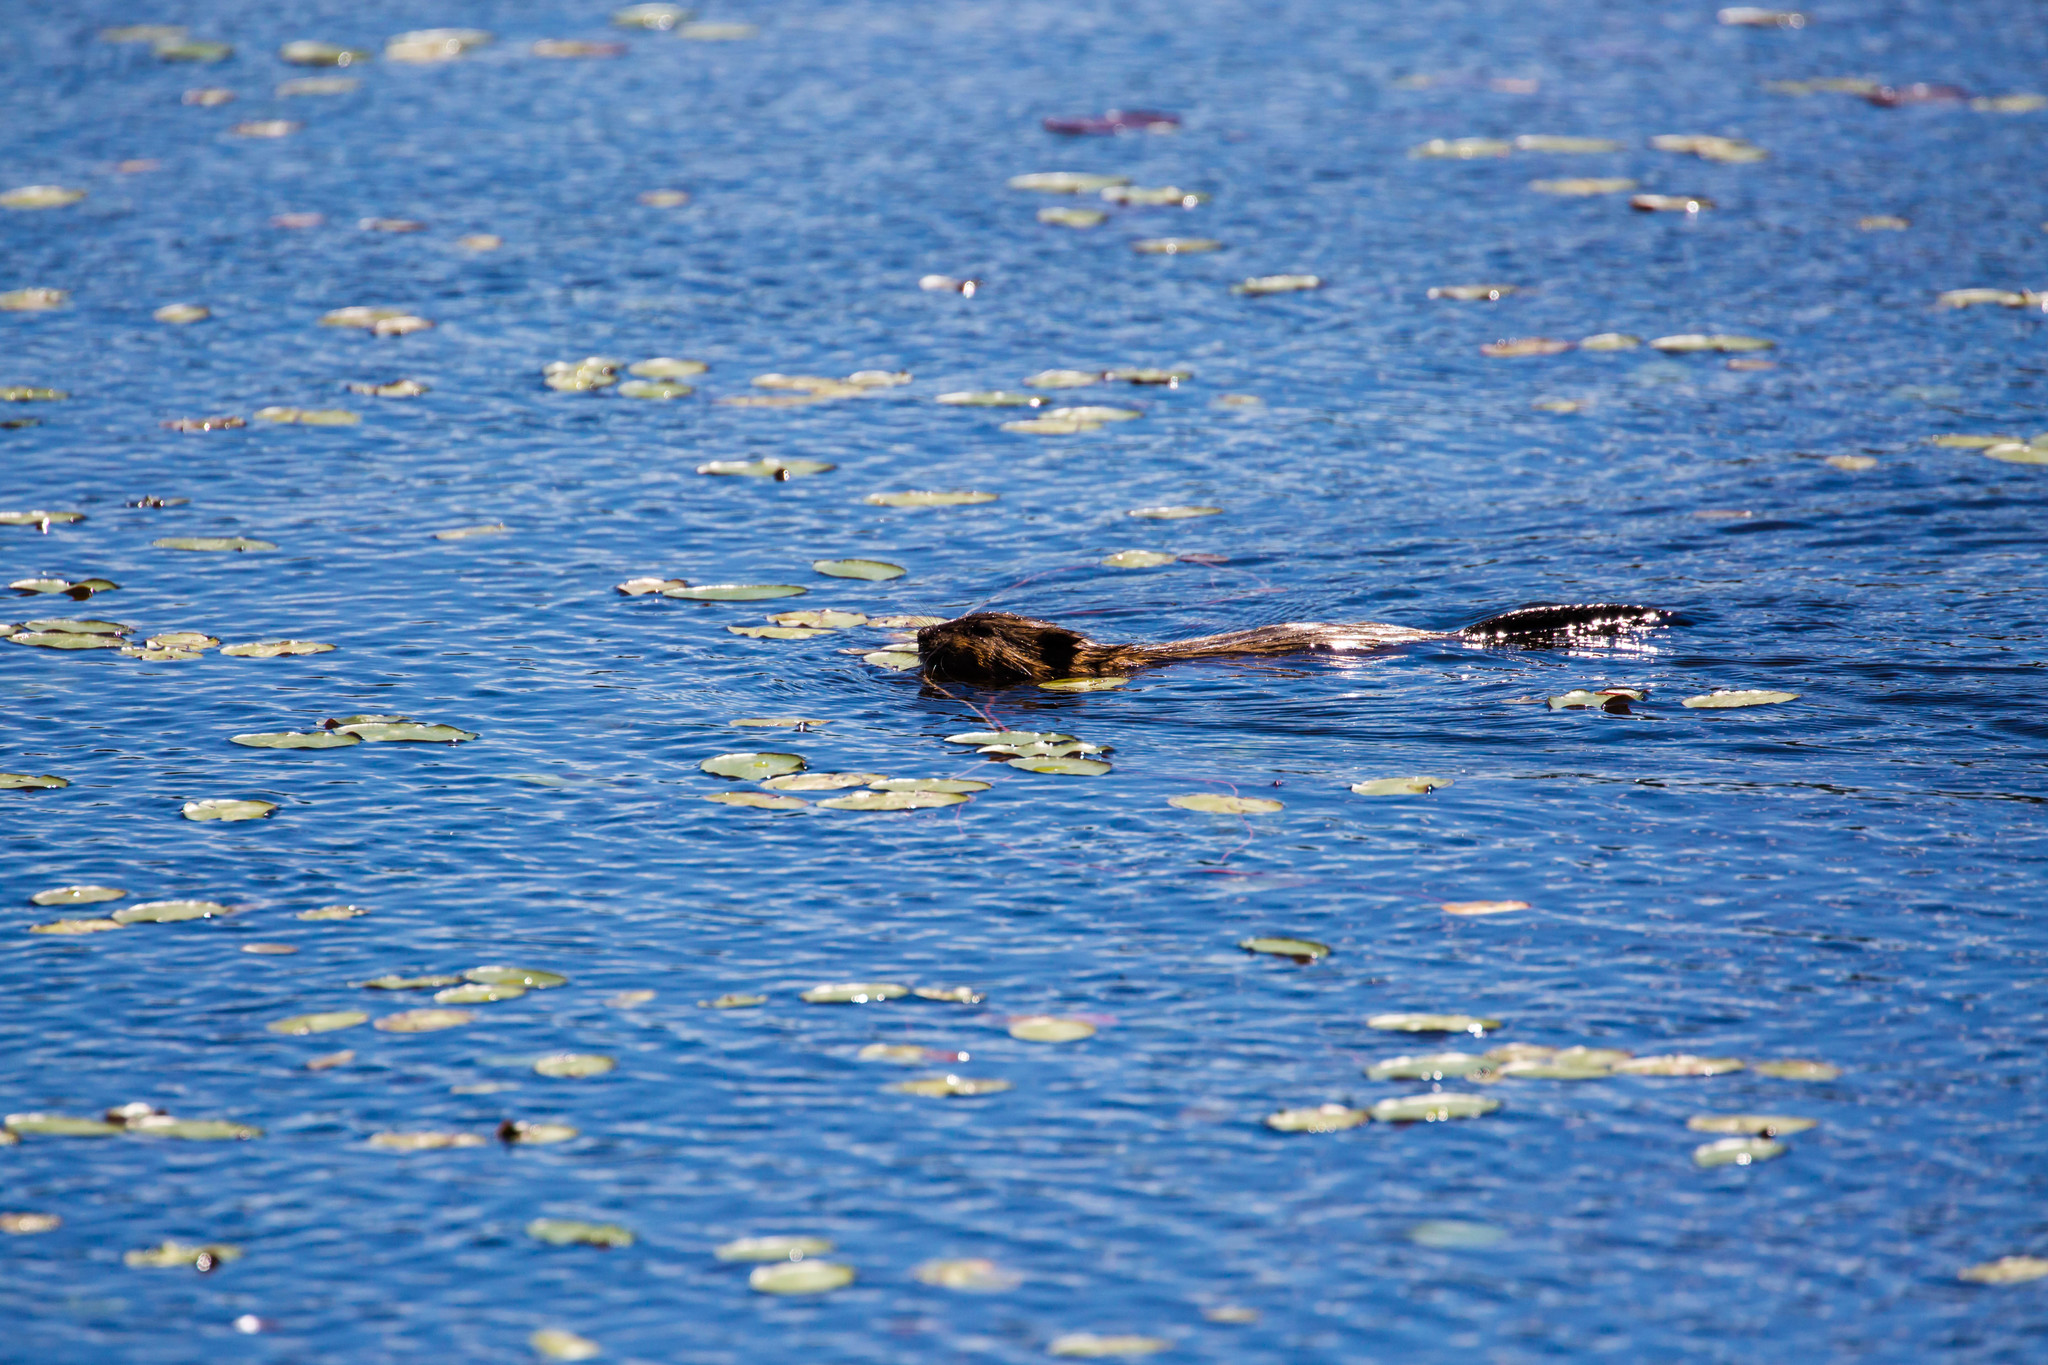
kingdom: Animalia
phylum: Chordata
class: Mammalia
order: Rodentia
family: Cricetidae
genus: Ondatra
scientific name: Ondatra zibethicus
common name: Muskrat
